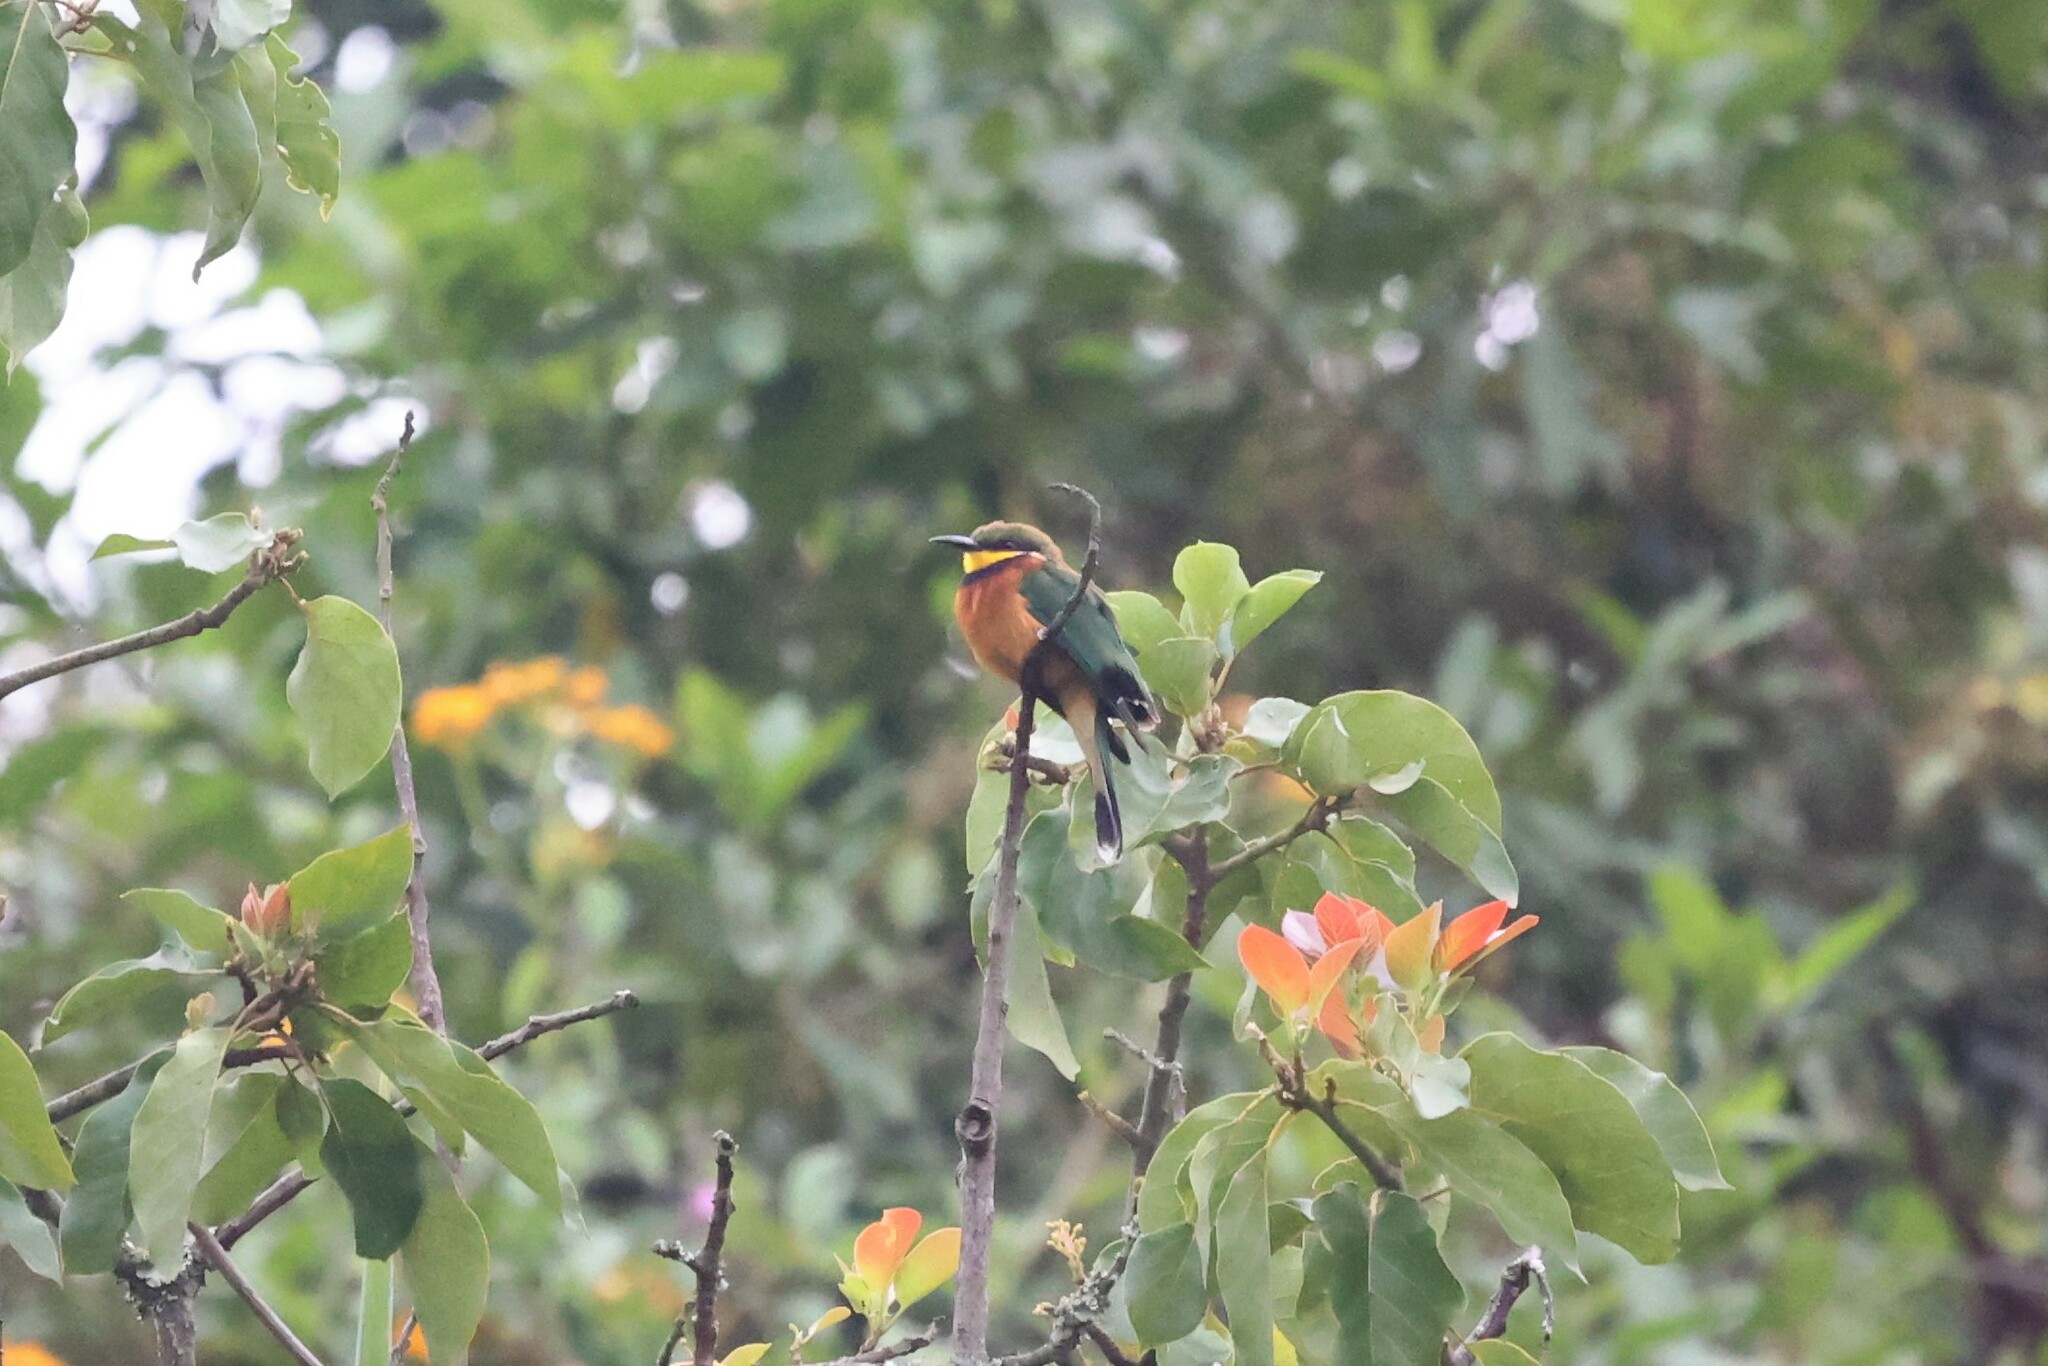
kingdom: Animalia
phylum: Chordata
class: Aves
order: Coraciiformes
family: Meropidae
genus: Merops
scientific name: Merops oreobates
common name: Cinnamon-chested bee-eater
